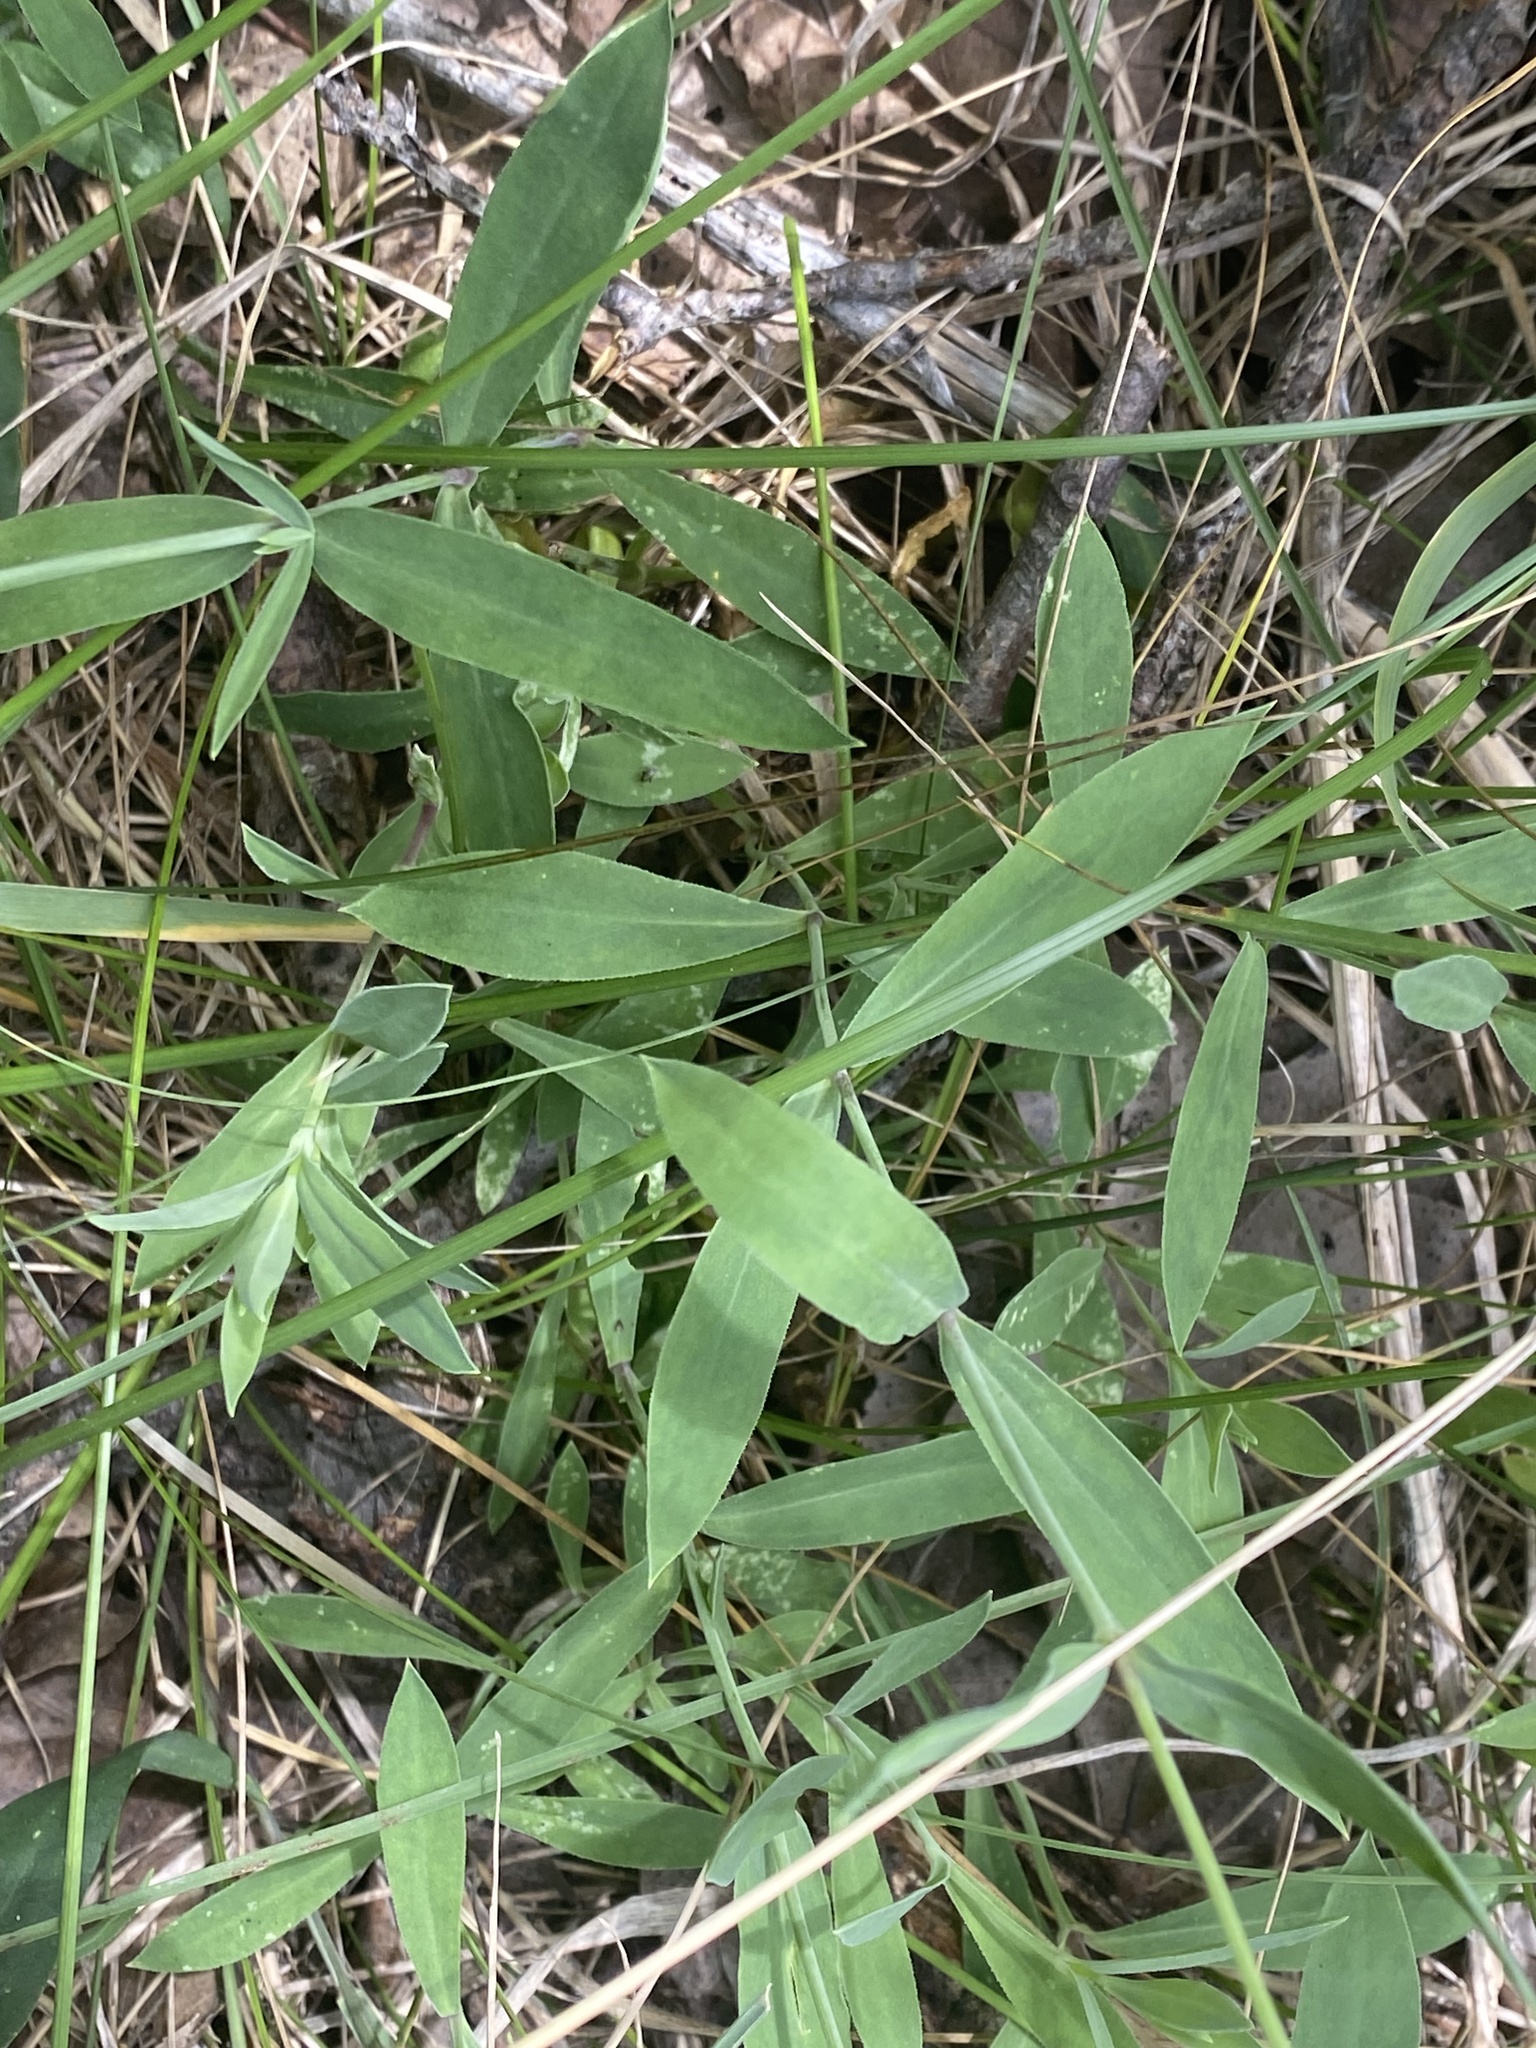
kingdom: Plantae
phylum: Tracheophyta
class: Magnoliopsida
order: Caryophyllales
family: Caryophyllaceae
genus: Silene
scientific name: Silene vulgaris
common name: Bladder campion
